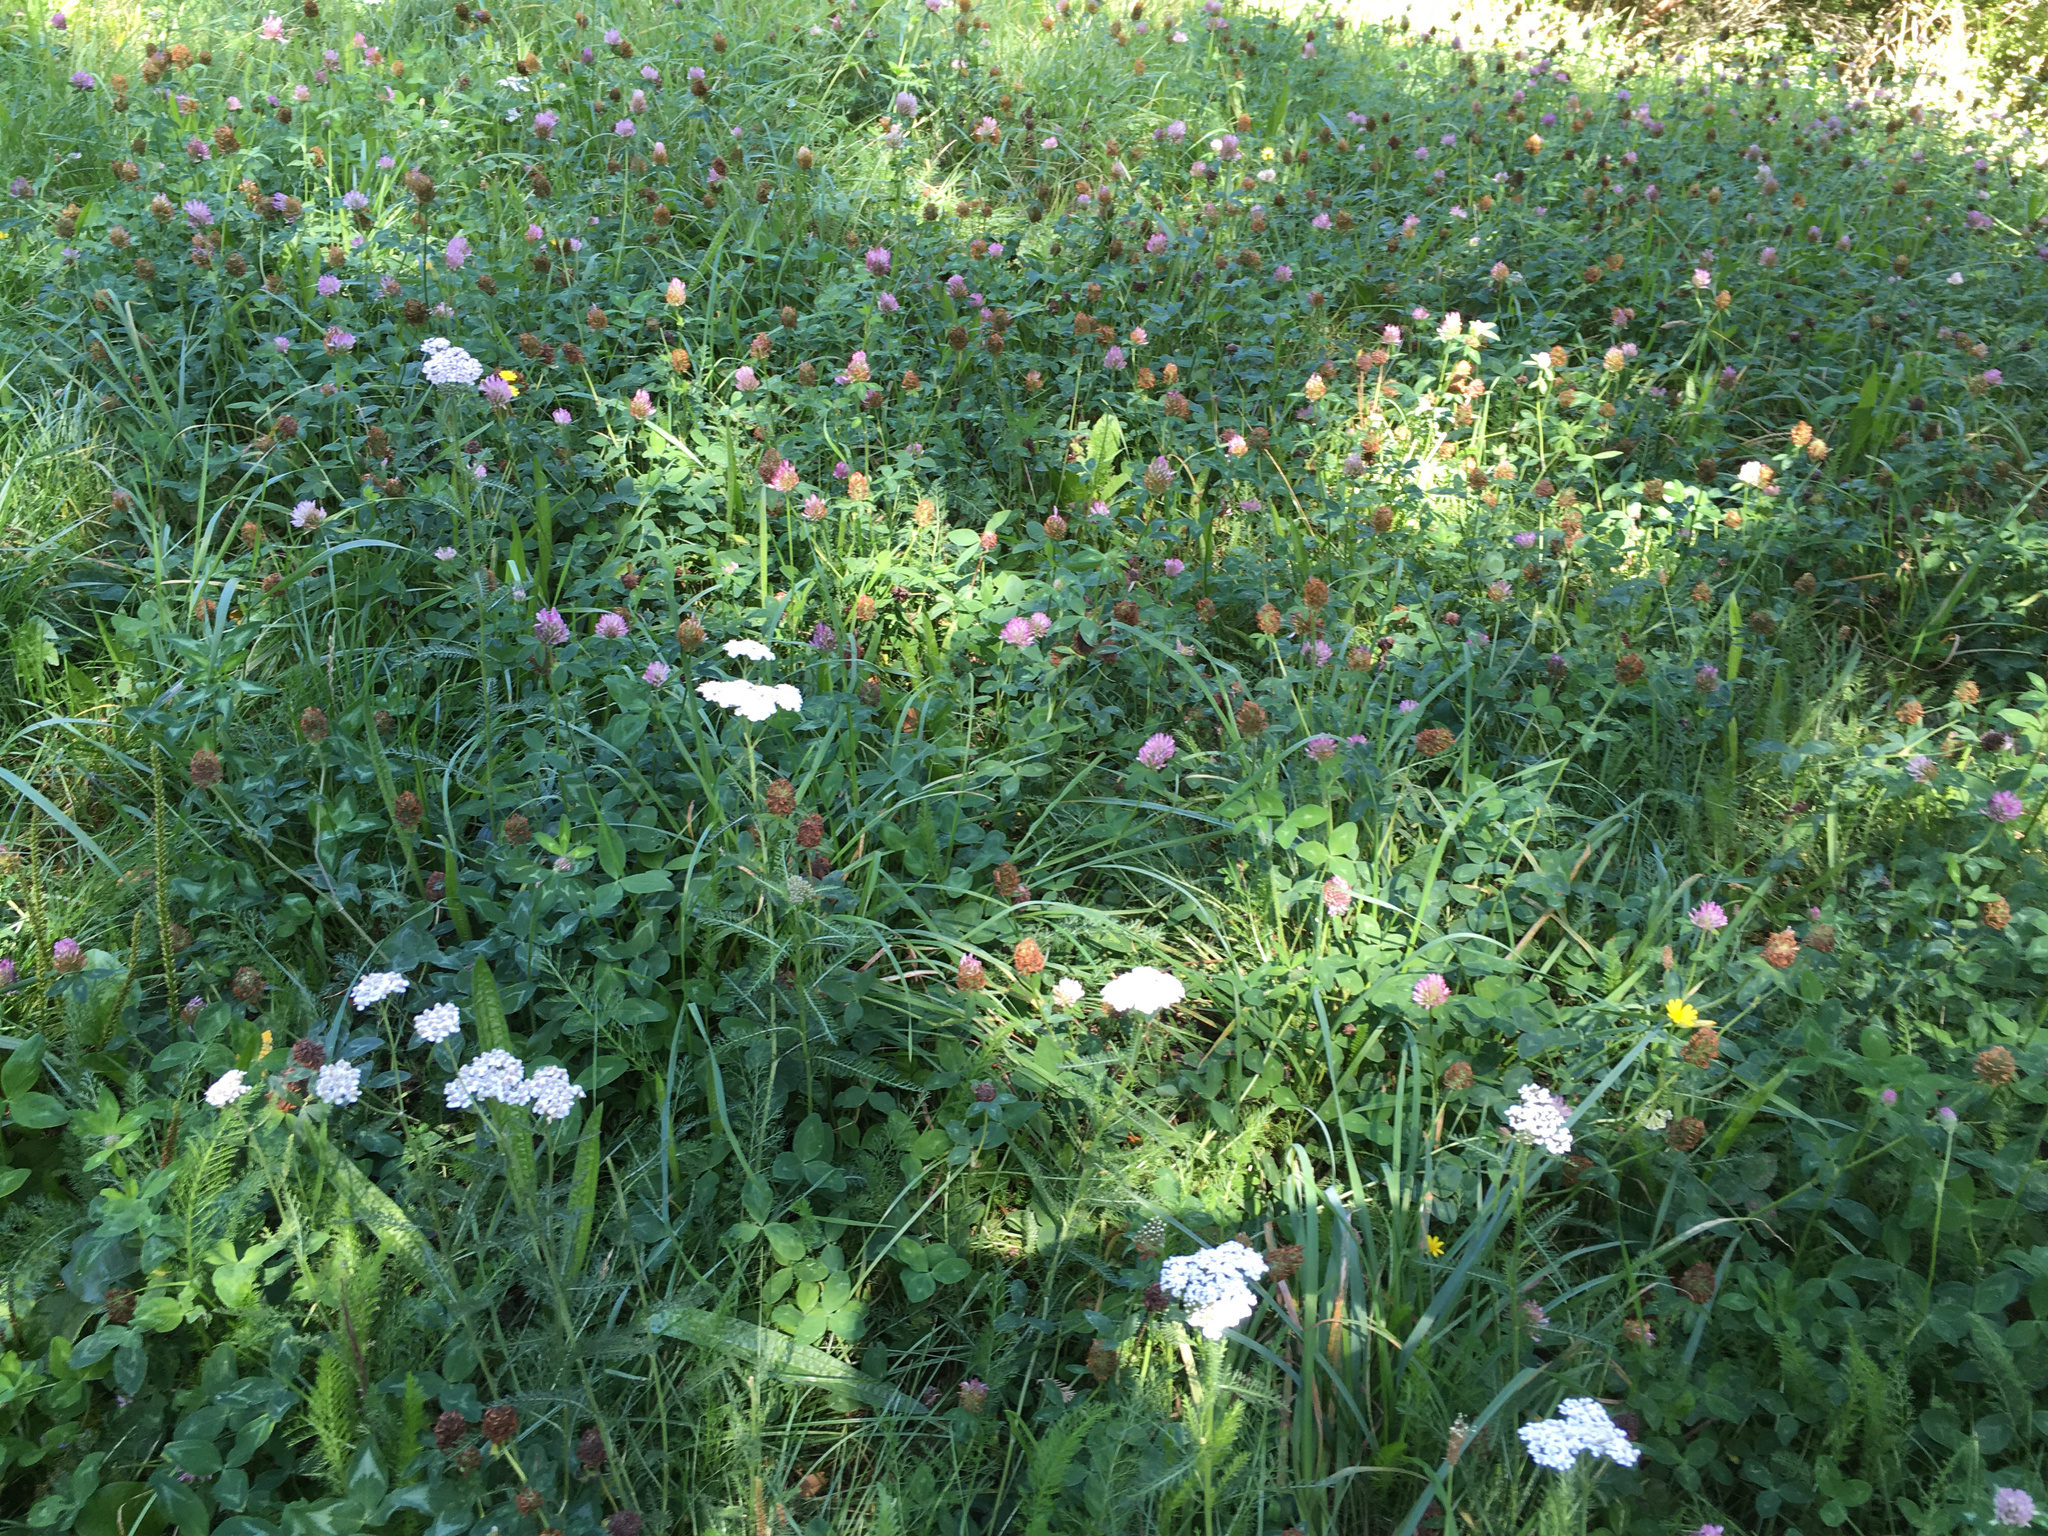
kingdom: Plantae
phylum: Tracheophyta
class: Magnoliopsida
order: Asterales
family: Asteraceae
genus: Achillea
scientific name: Achillea millefolium
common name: Yarrow
